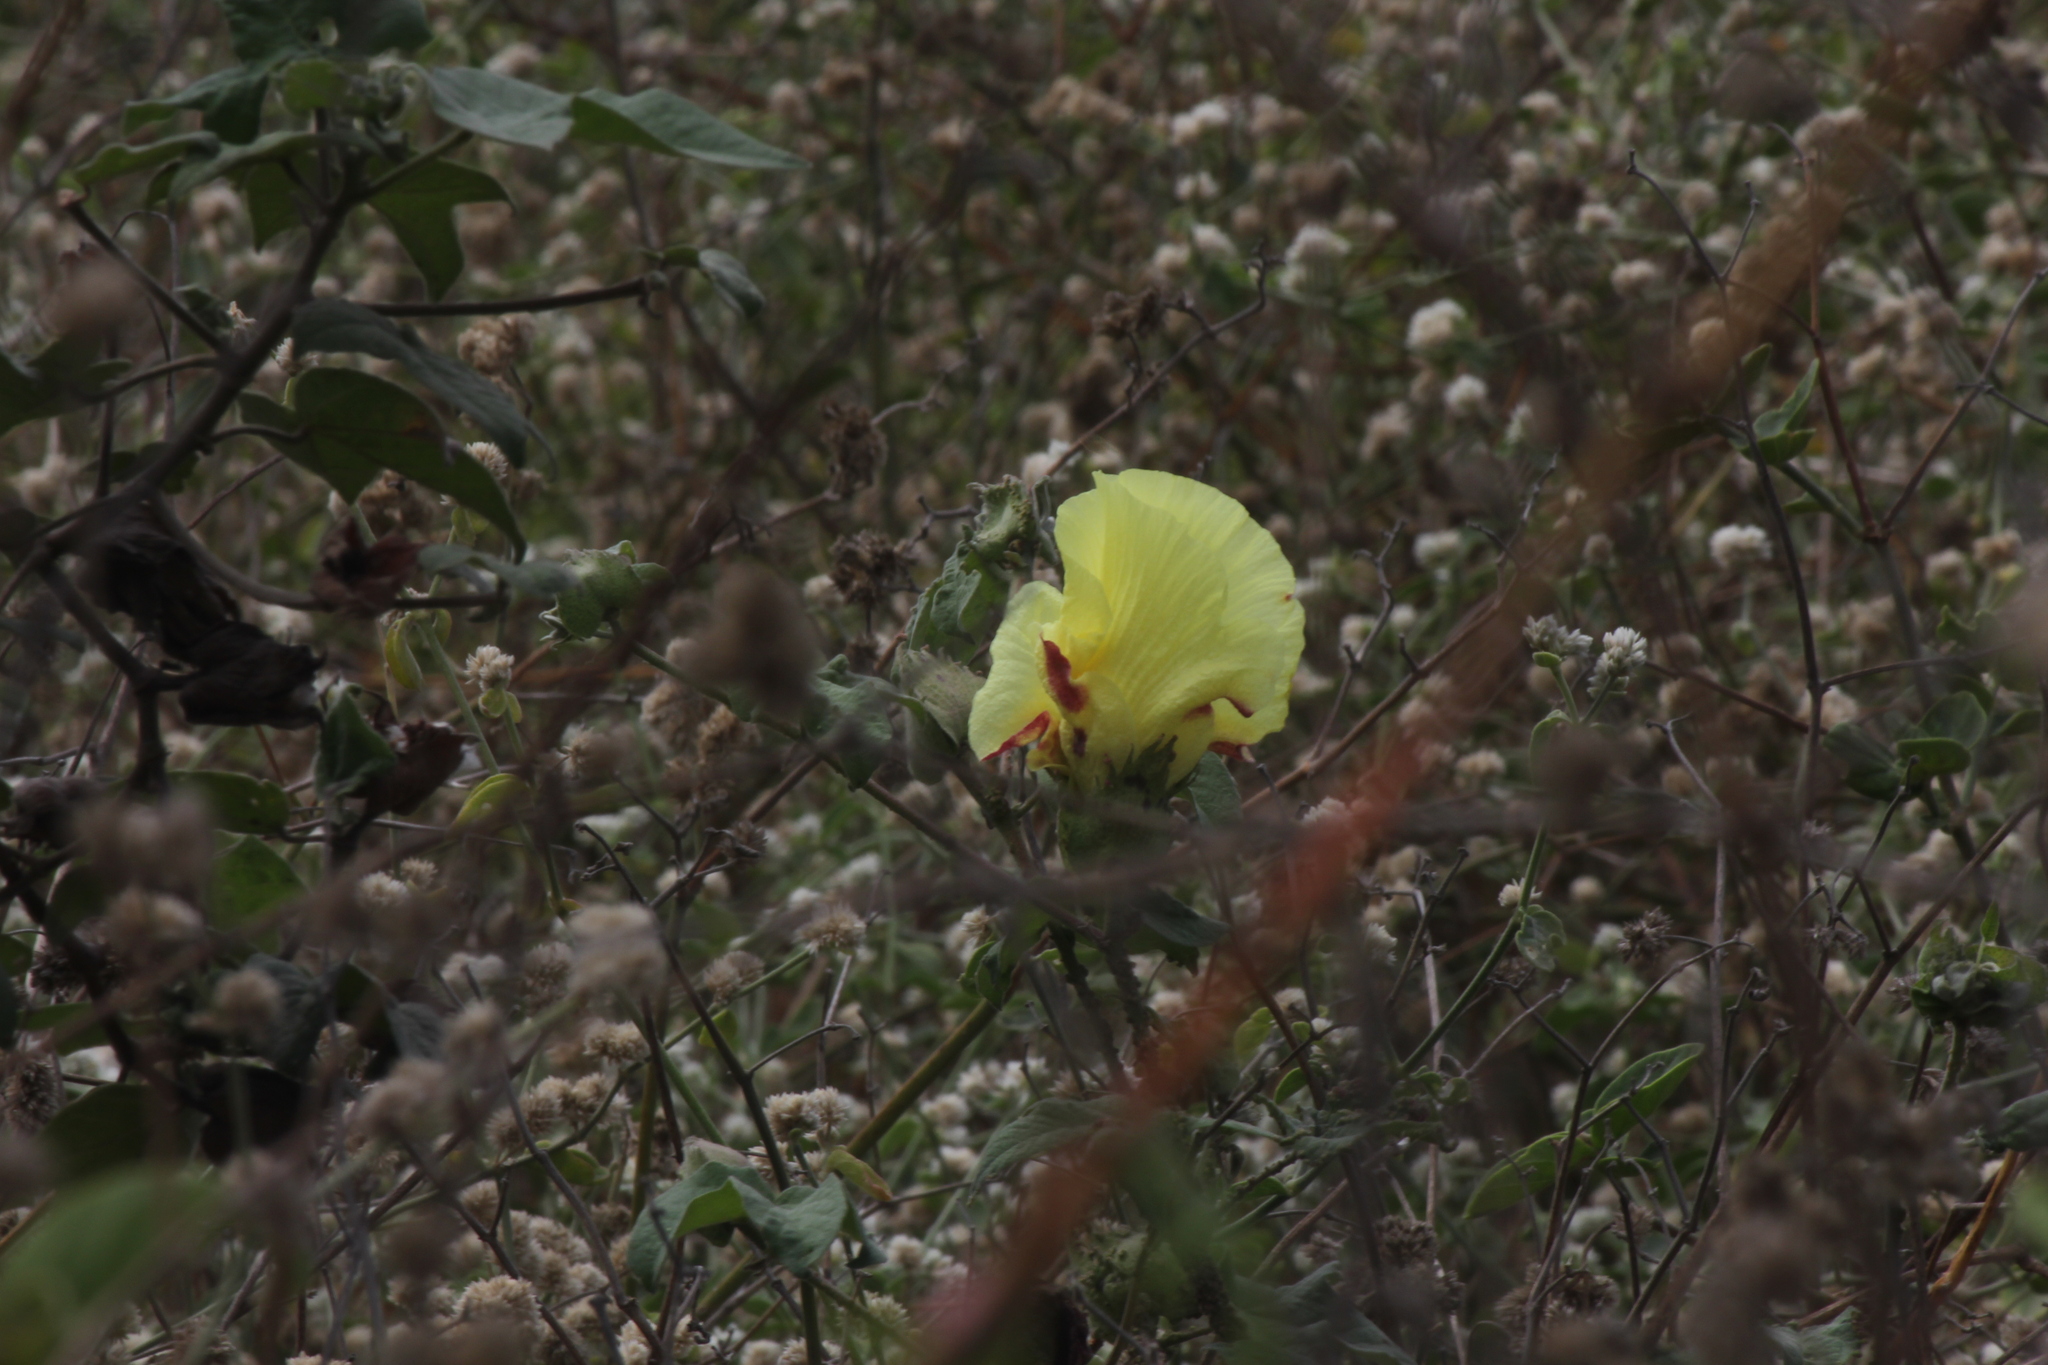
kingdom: Plantae
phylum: Tracheophyta
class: Magnoliopsida
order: Malvales
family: Malvaceae
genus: Gossypium
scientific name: Gossypium barbadense
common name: Creole cotton
